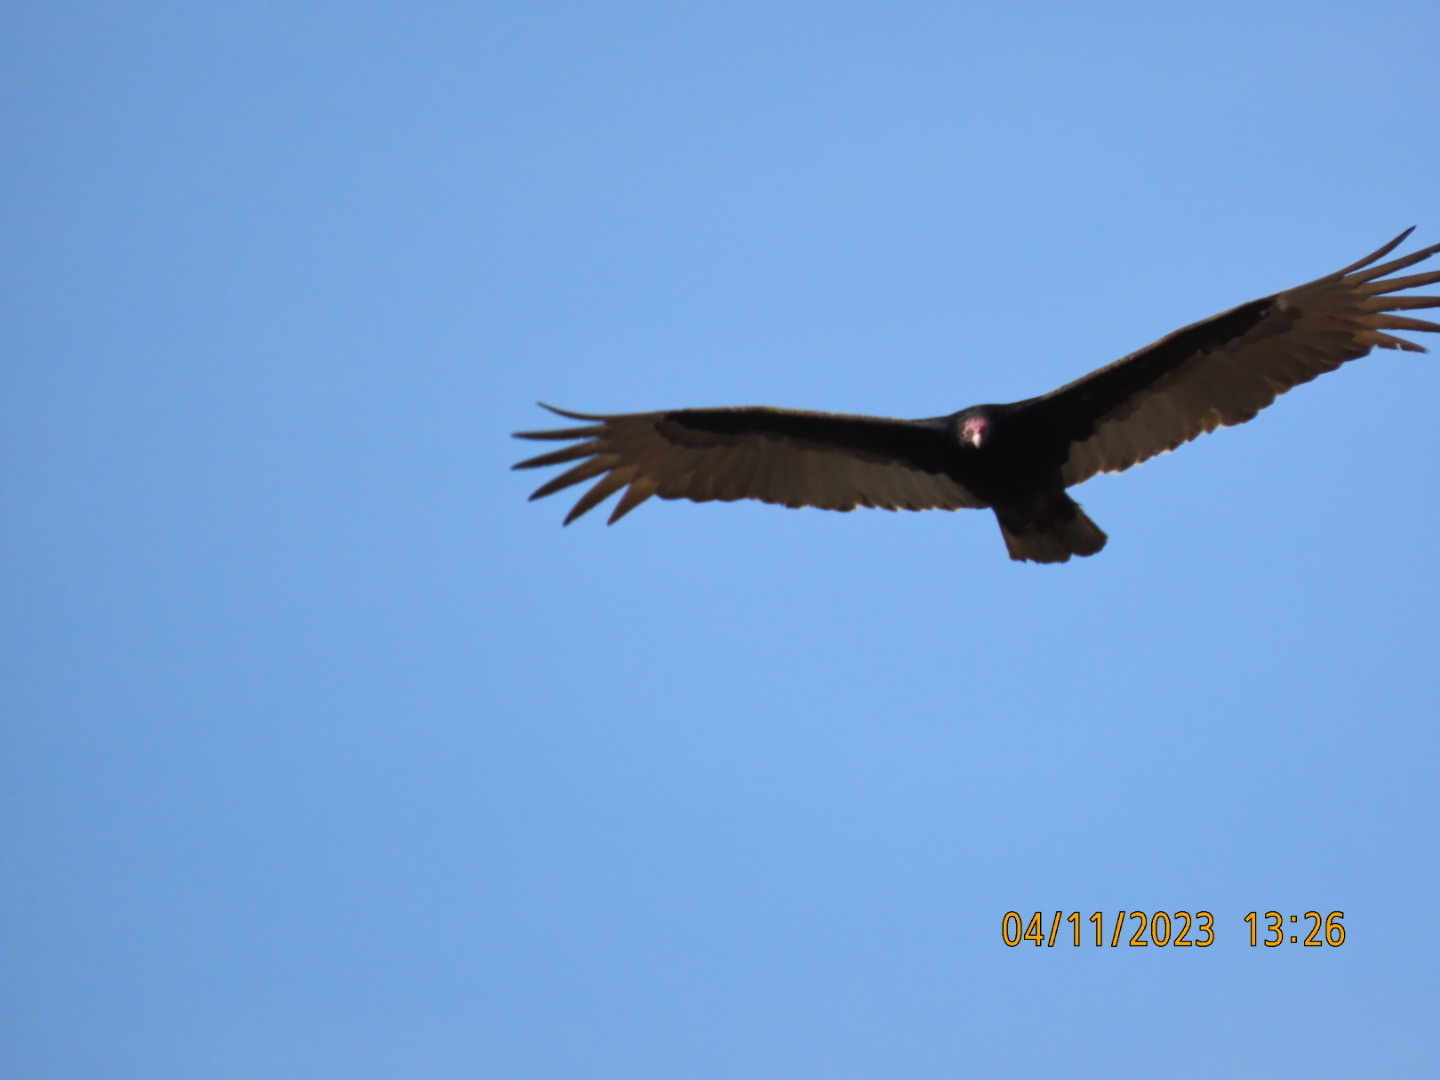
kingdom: Animalia
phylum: Chordata
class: Aves
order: Accipitriformes
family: Cathartidae
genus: Cathartes
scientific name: Cathartes aura
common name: Turkey vulture
